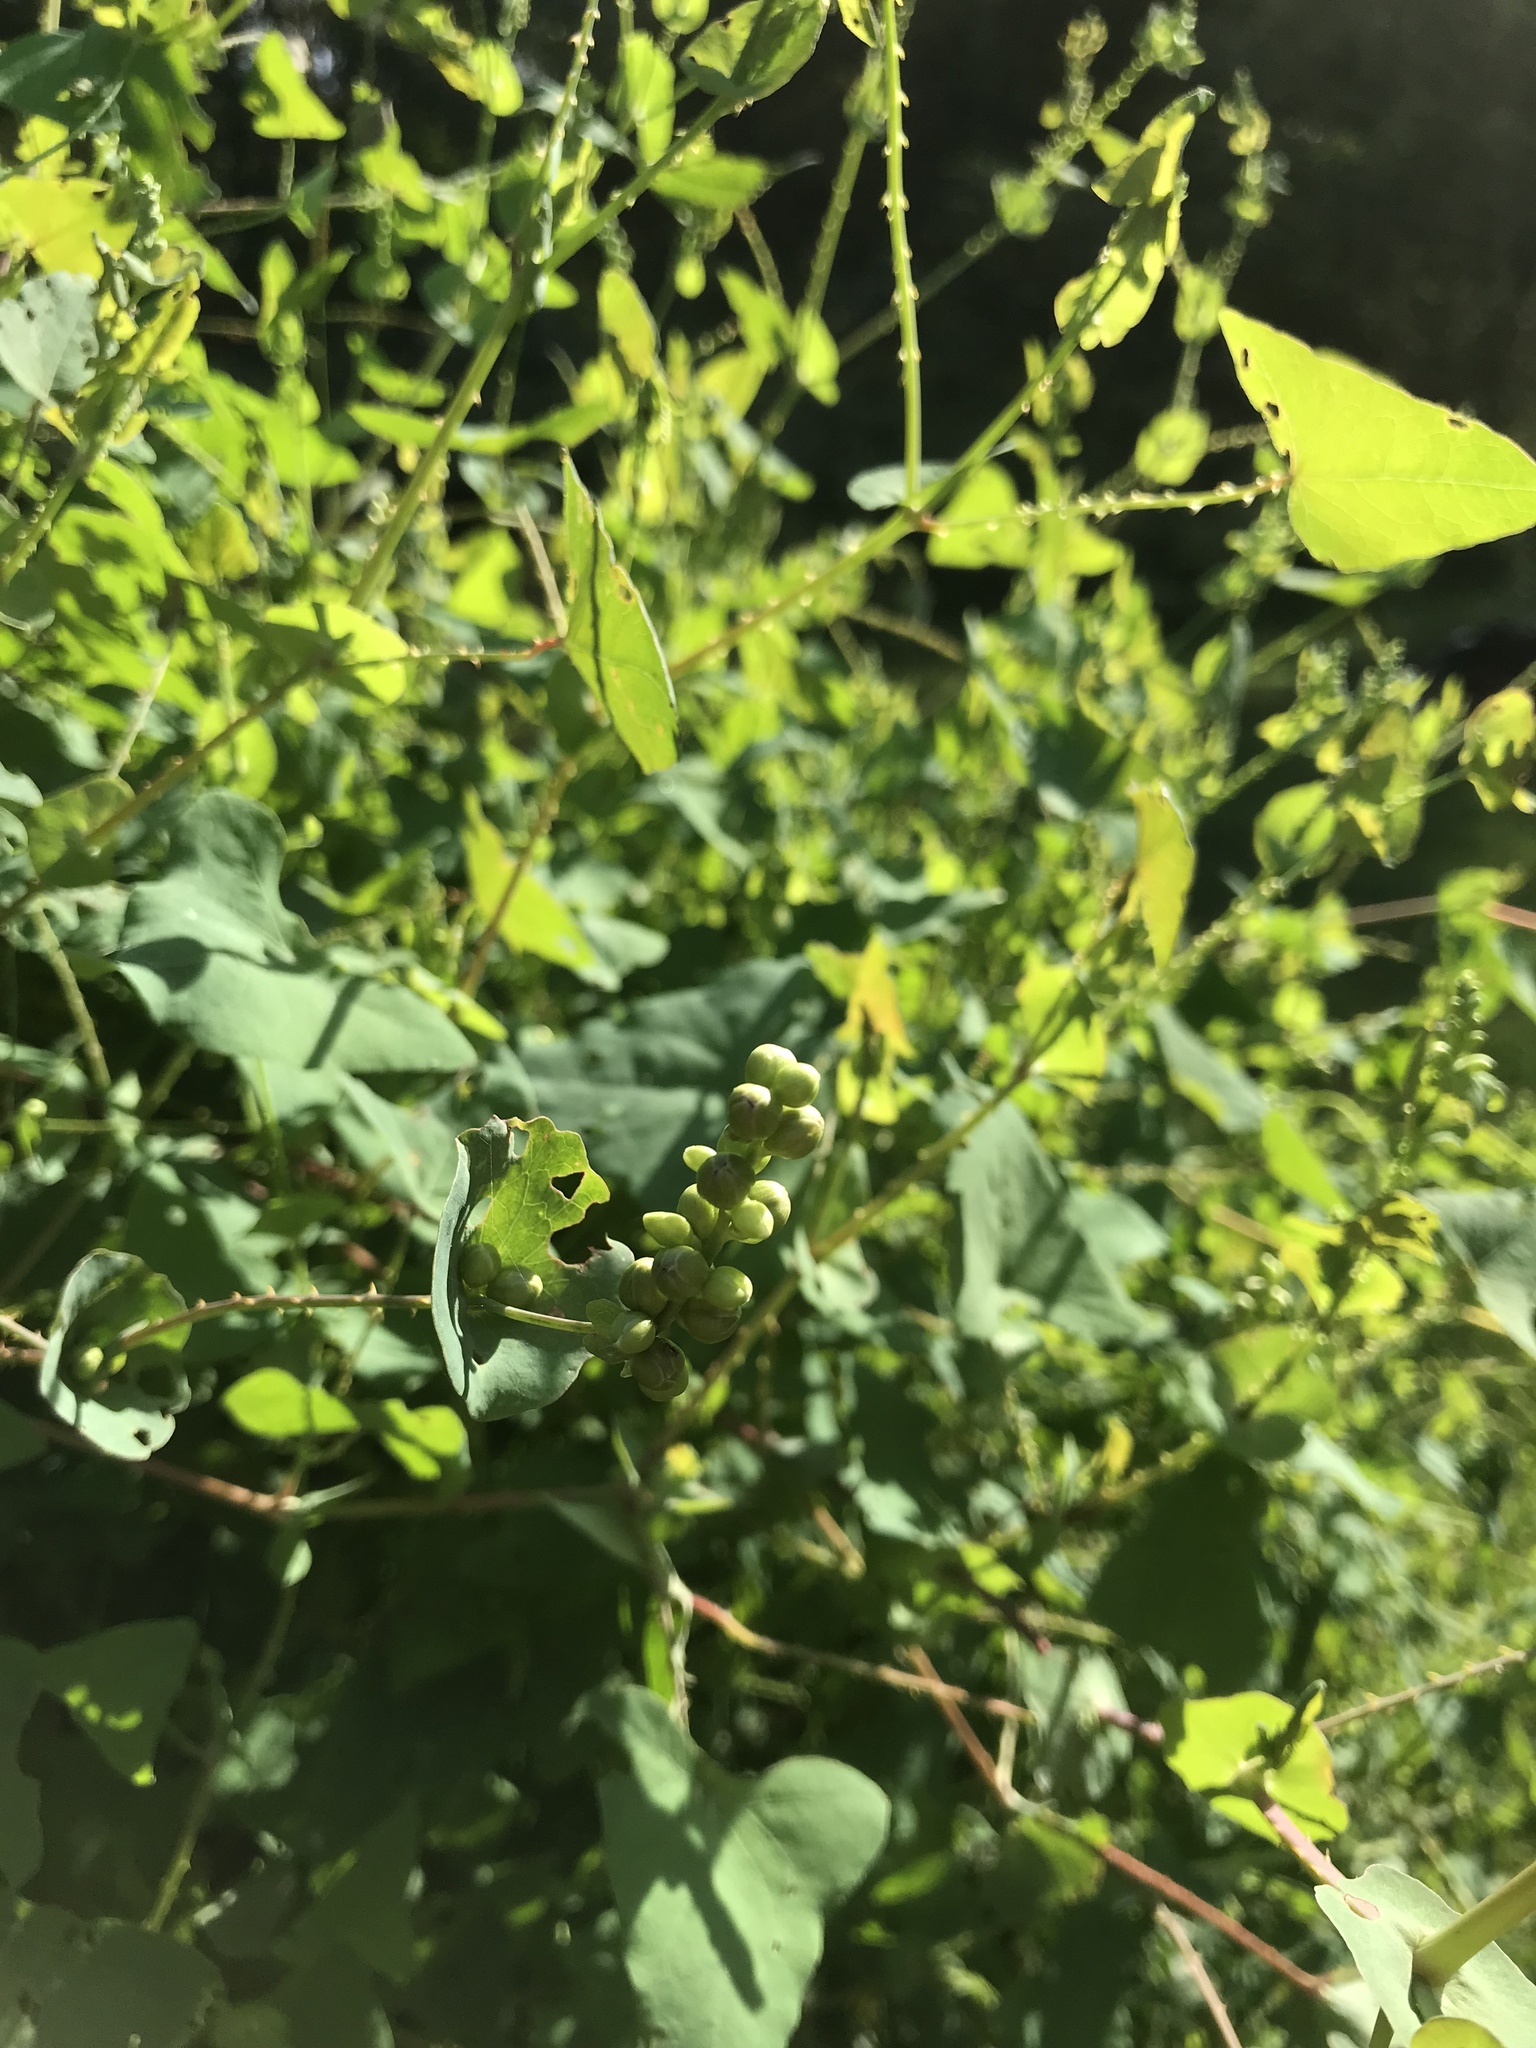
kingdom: Plantae
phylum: Tracheophyta
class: Magnoliopsida
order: Caryophyllales
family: Polygonaceae
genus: Persicaria
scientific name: Persicaria perfoliata
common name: Asiatic tearthumb
